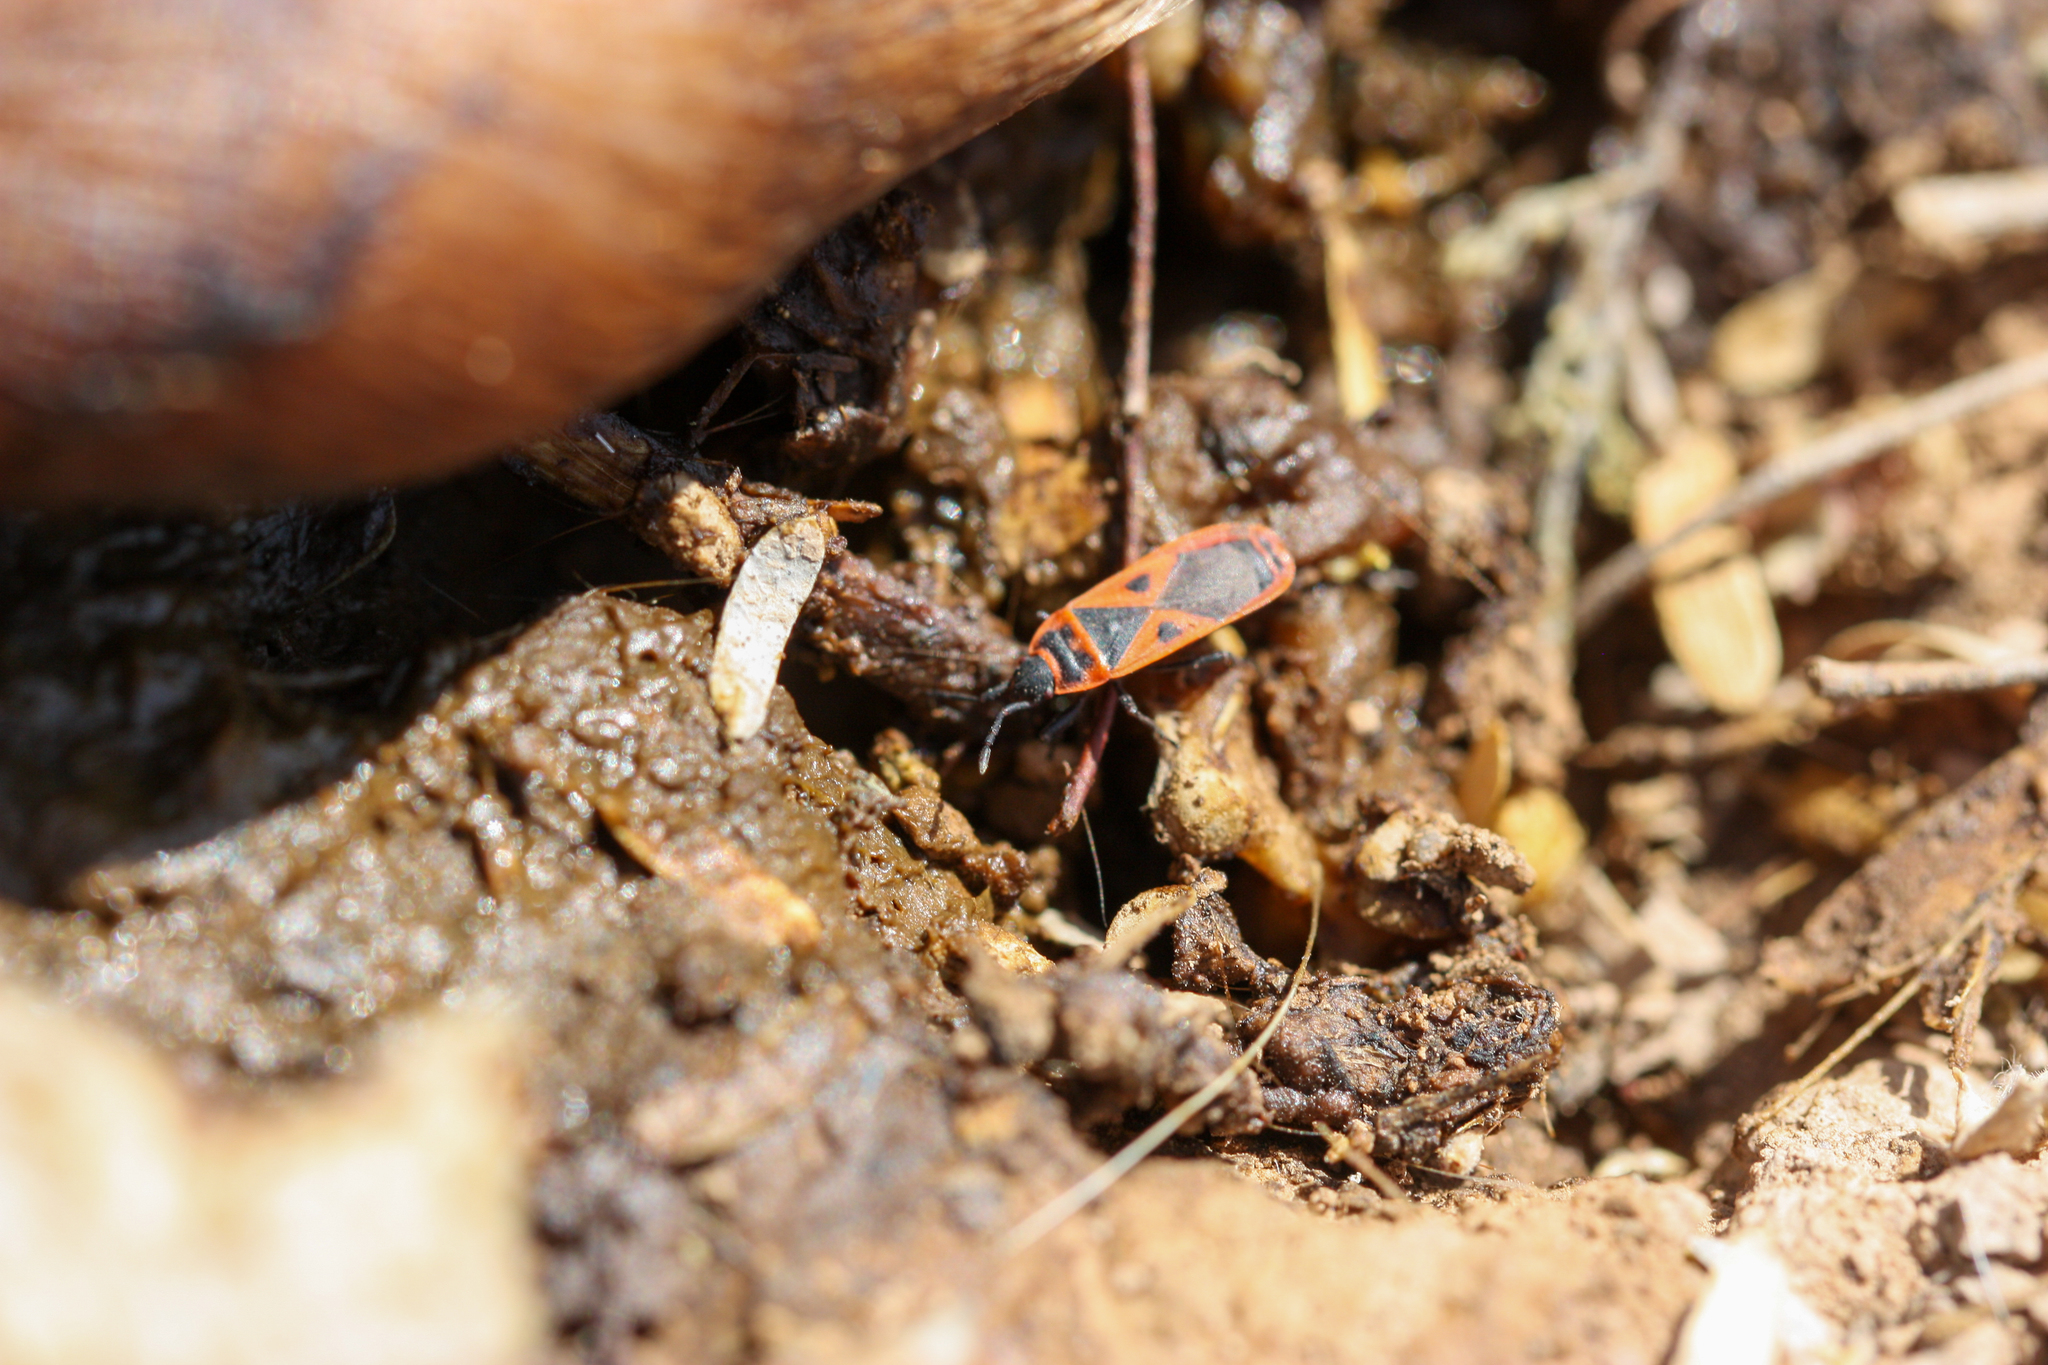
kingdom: Animalia
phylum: Arthropoda
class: Insecta
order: Hemiptera
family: Pyrrhocoridae
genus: Scantius
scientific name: Scantius aegyptius
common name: Red bug
